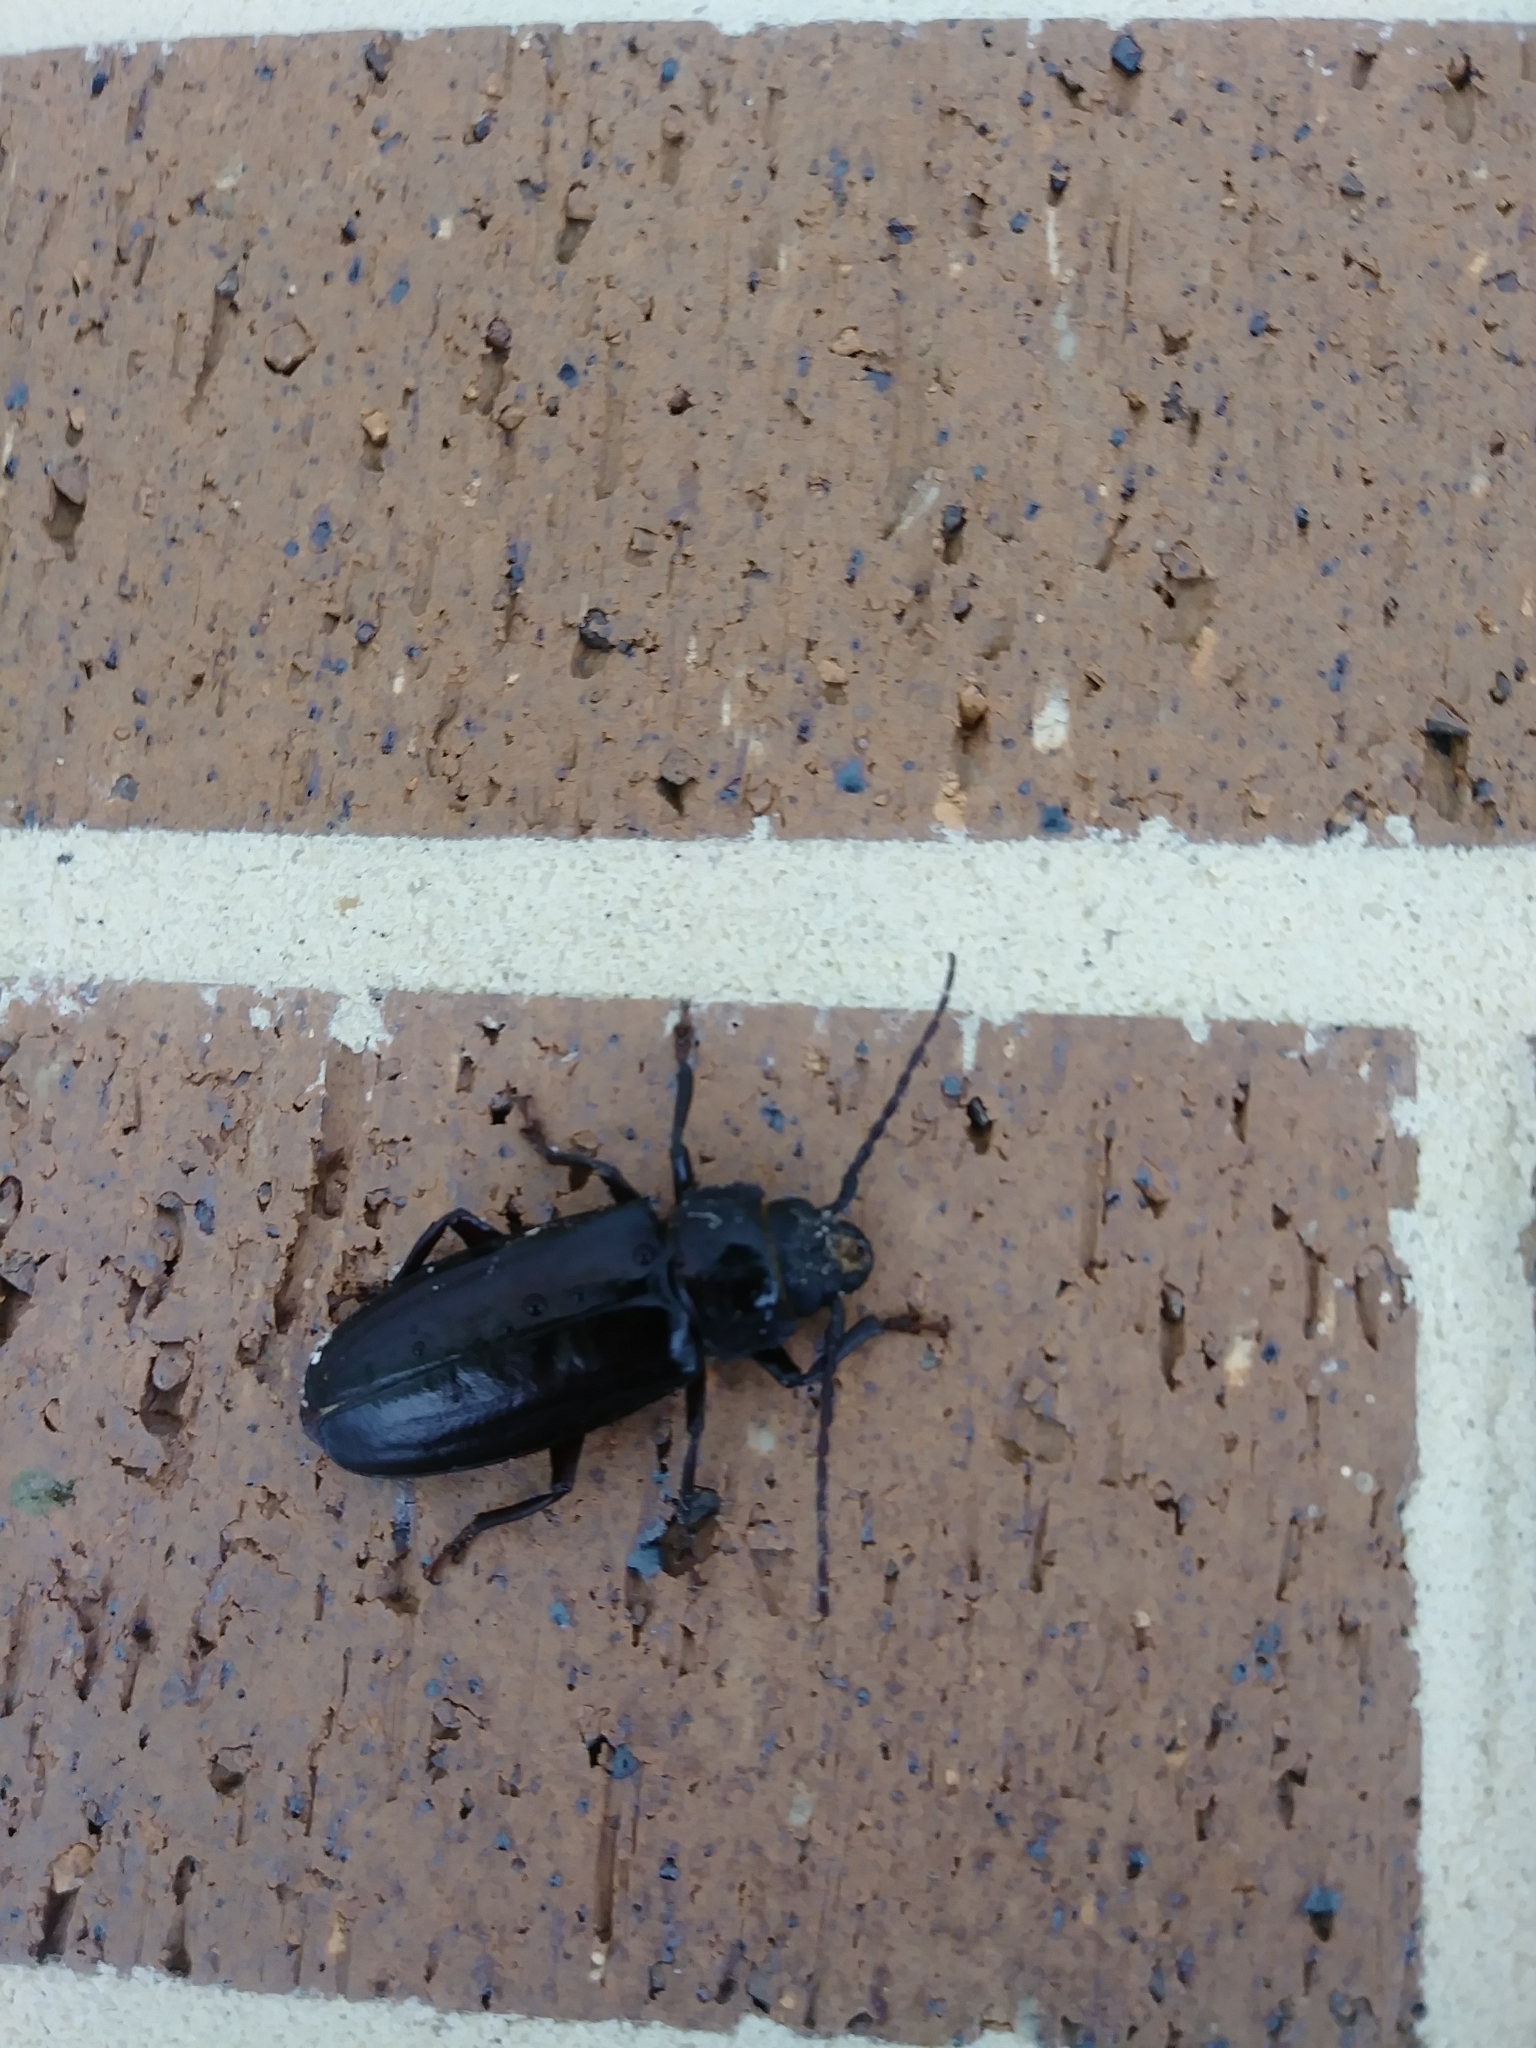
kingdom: Animalia
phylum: Arthropoda
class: Insecta
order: Coleoptera
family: Cerambycidae
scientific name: Cerambycidae
